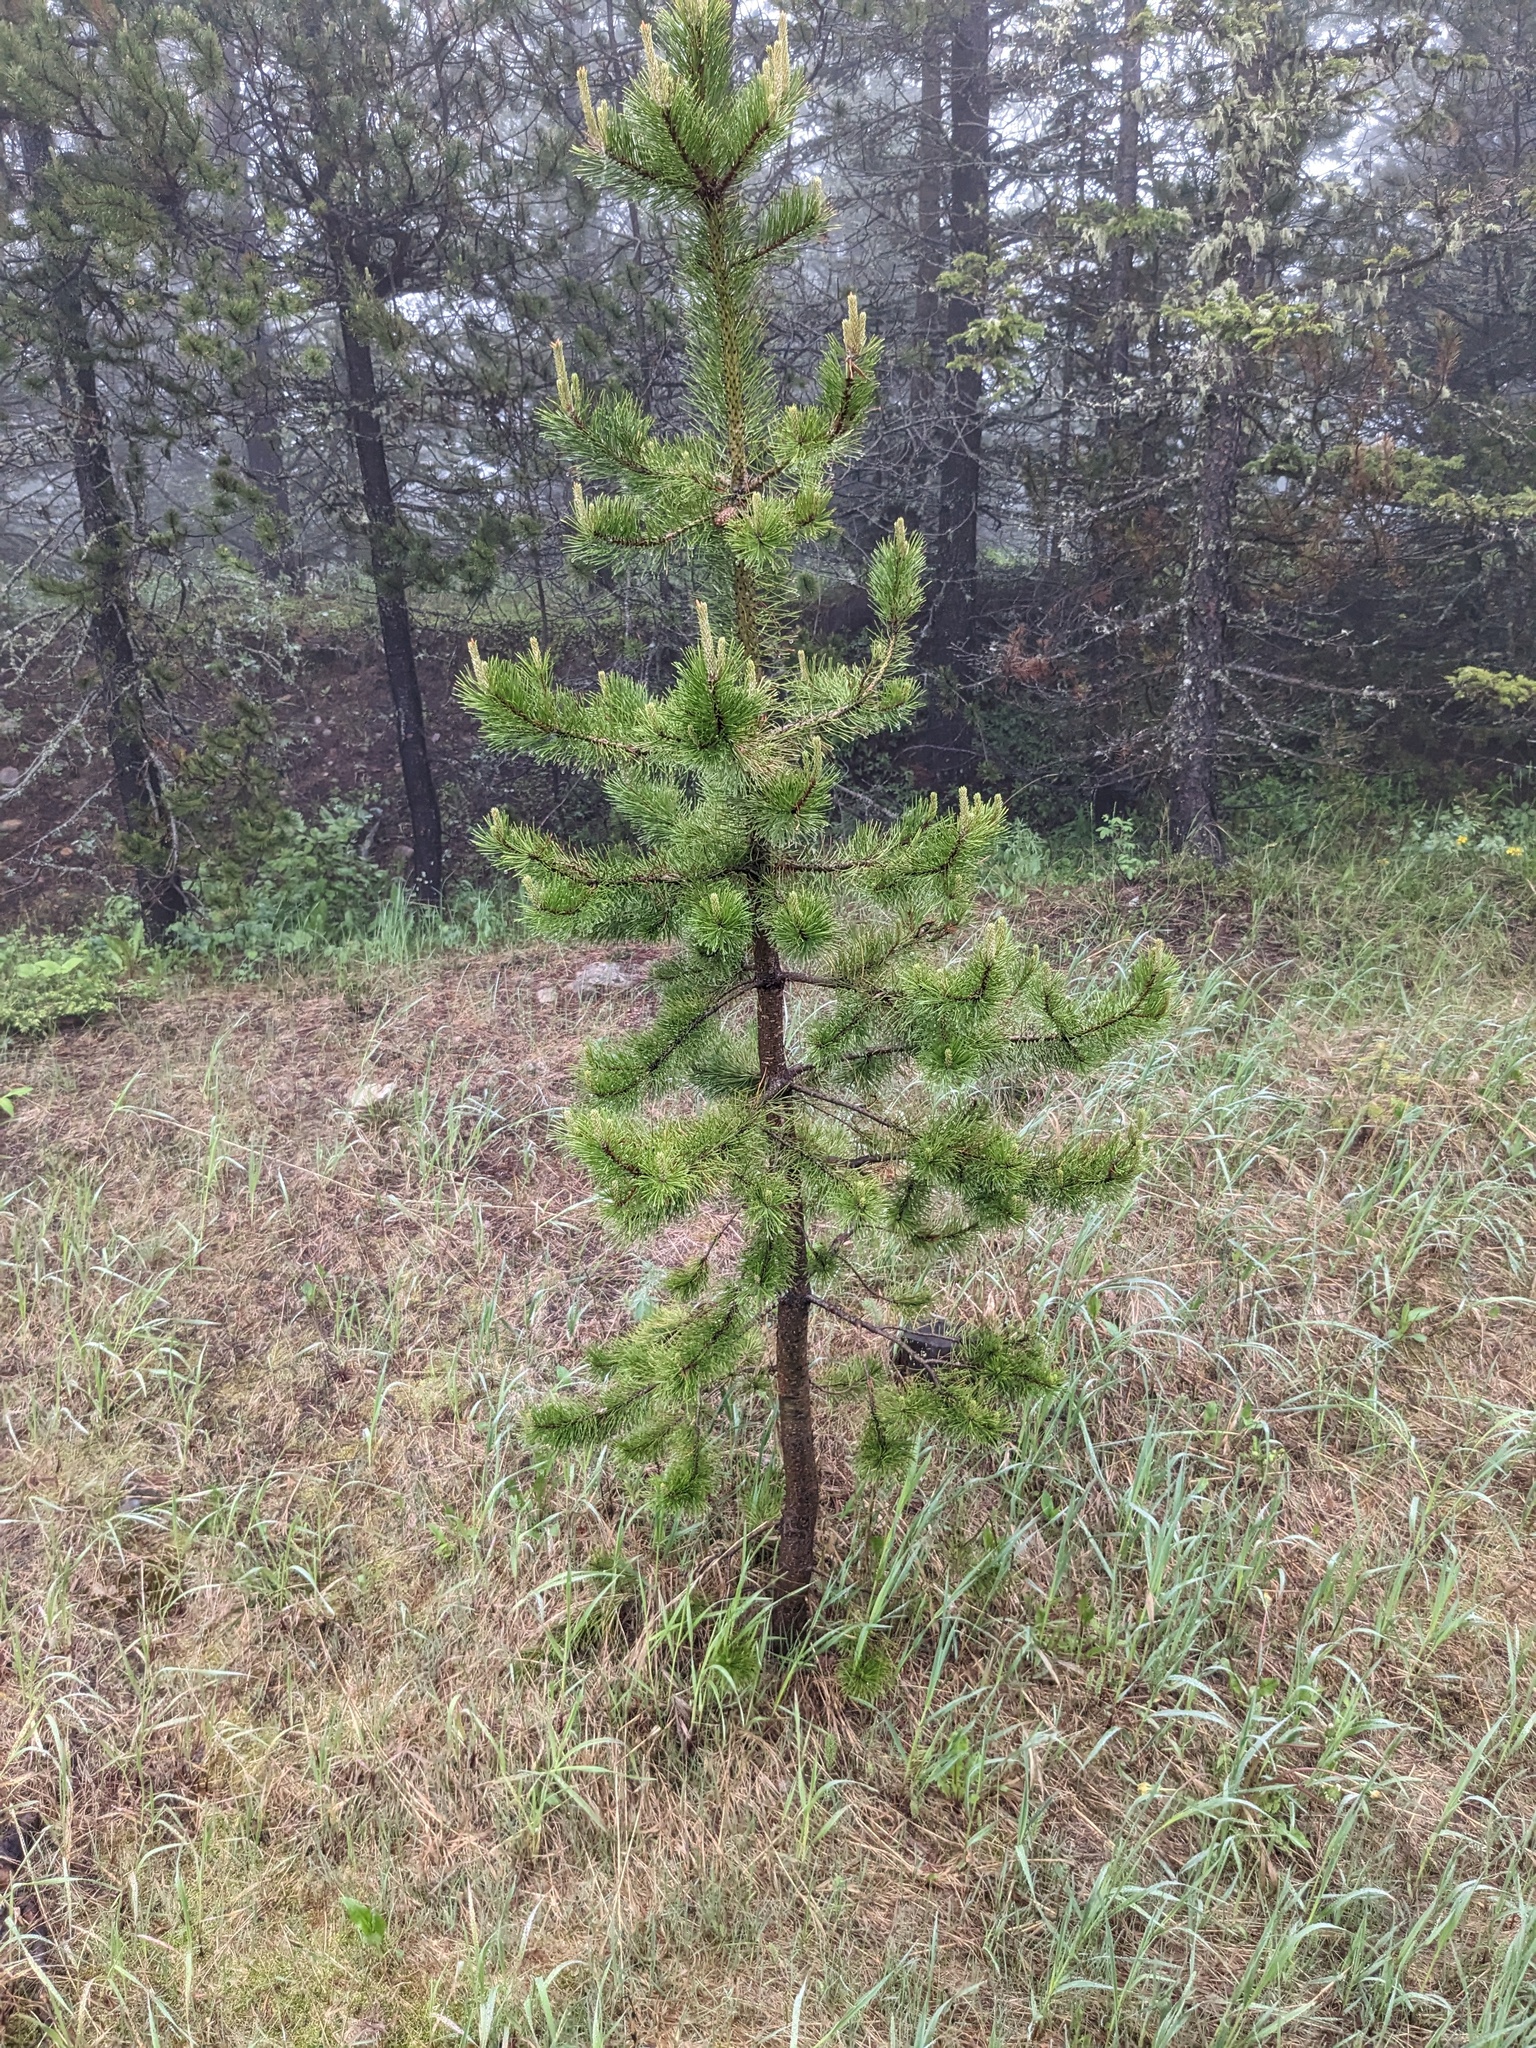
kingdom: Plantae
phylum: Tracheophyta
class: Pinopsida
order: Pinales
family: Pinaceae
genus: Pinus
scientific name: Pinus contorta
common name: Lodgepole pine
